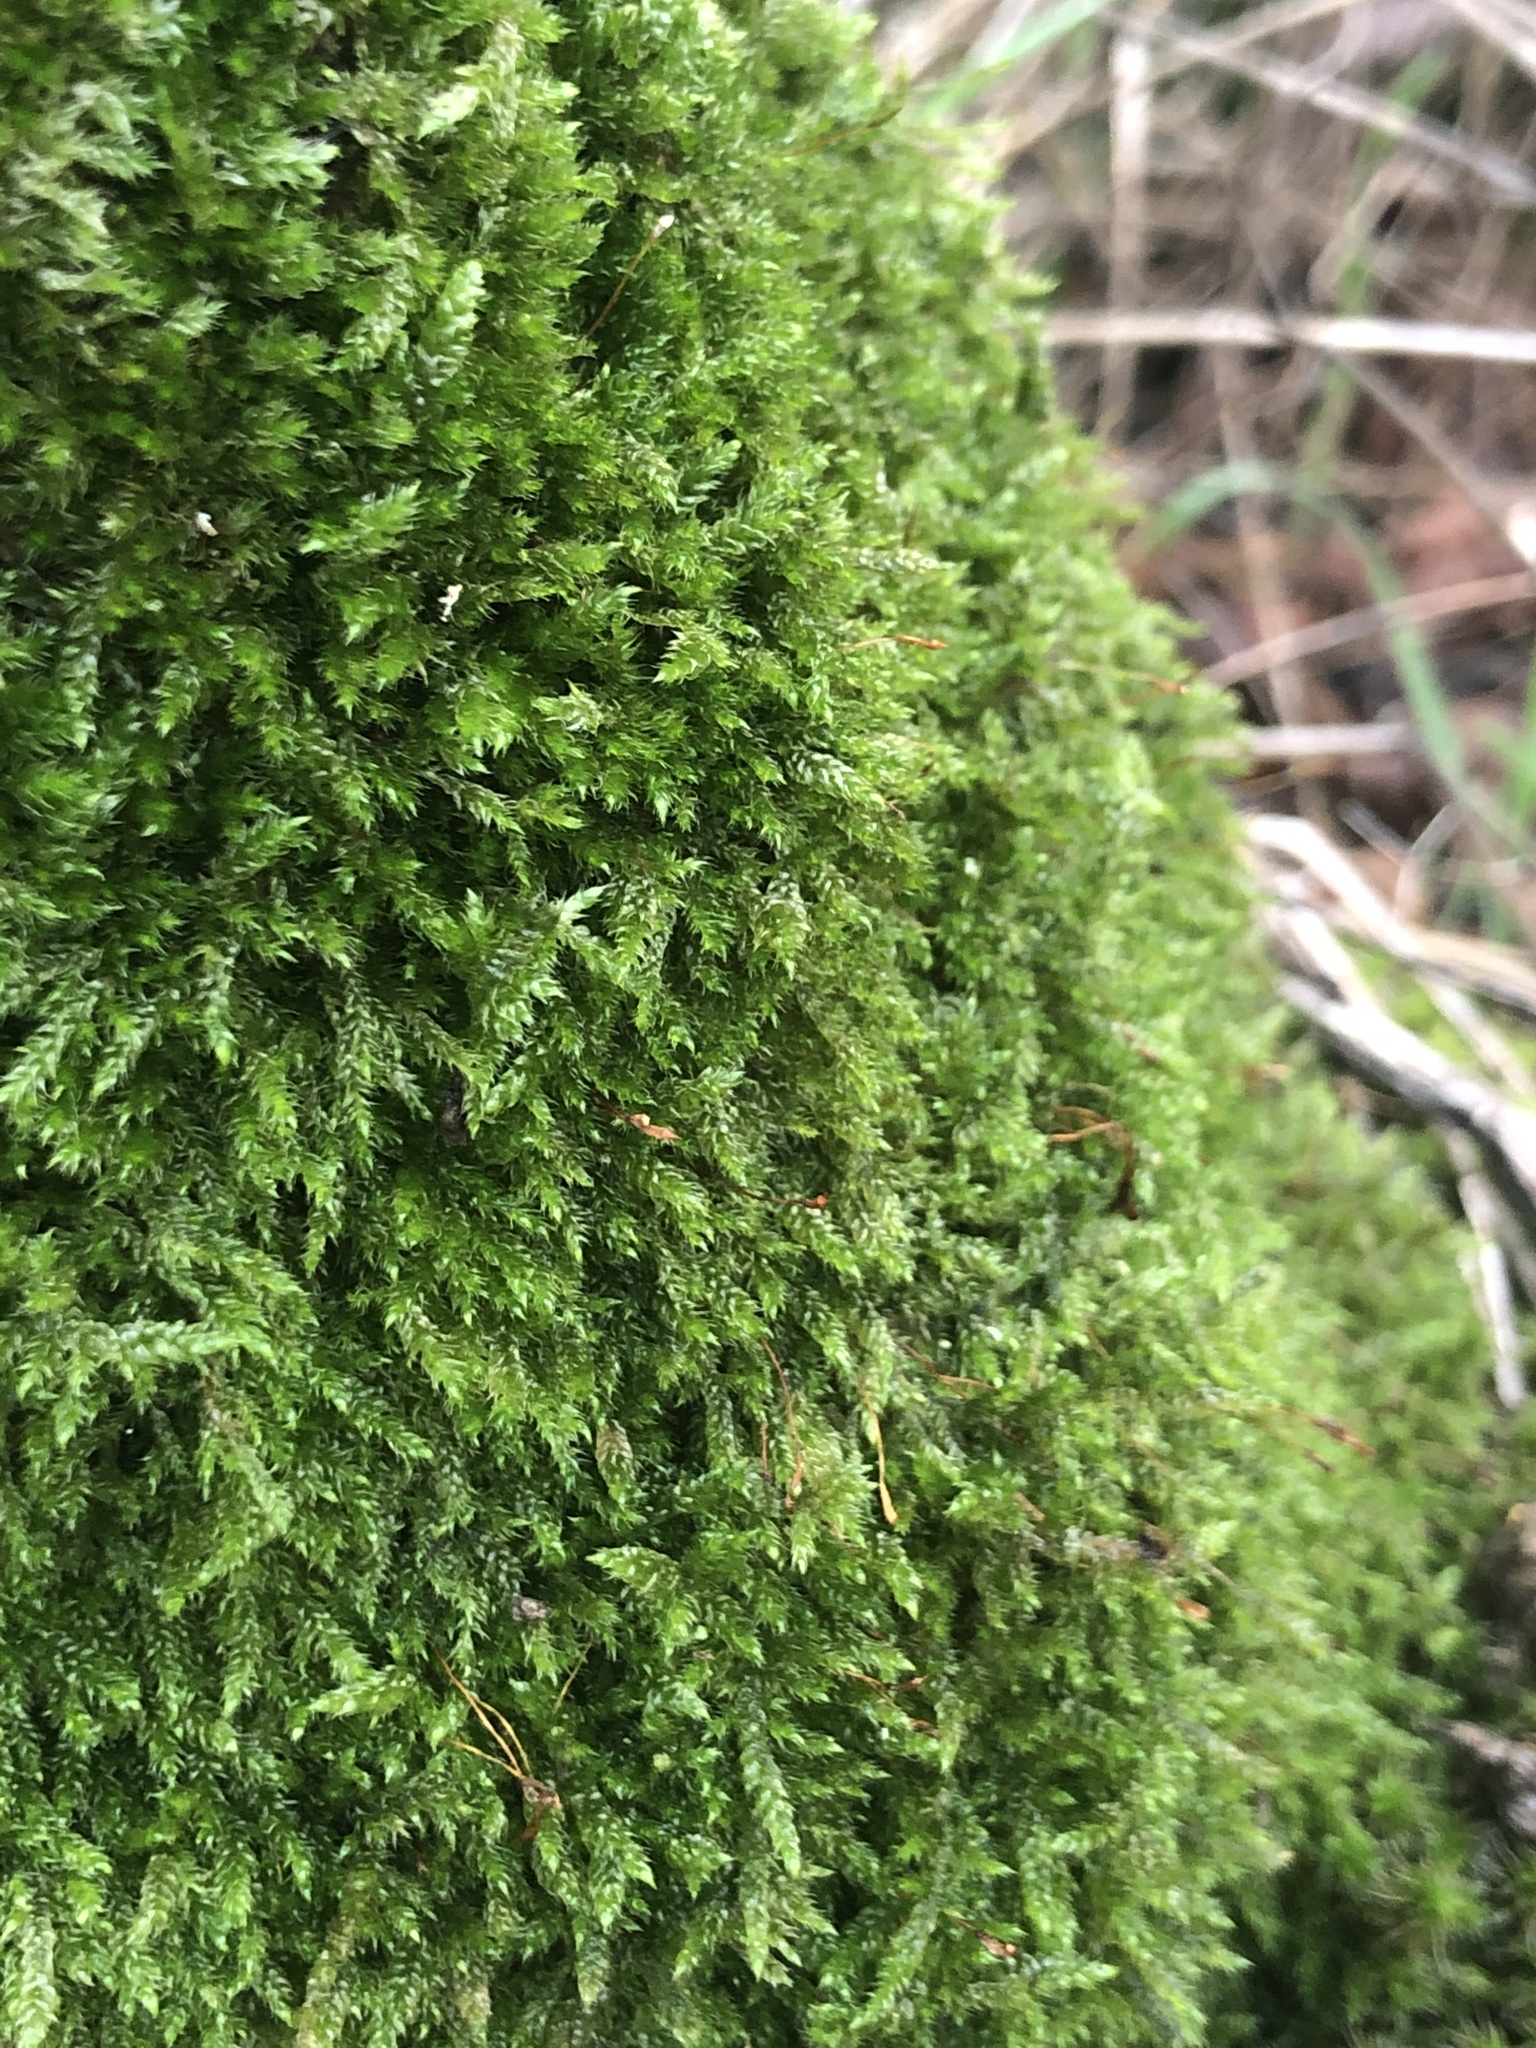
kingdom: Plantae
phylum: Bryophyta
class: Bryopsida
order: Hypnales
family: Hypnaceae
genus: Hypnum
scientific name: Hypnum cupressiforme
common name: Cypress-leaved plait-moss
